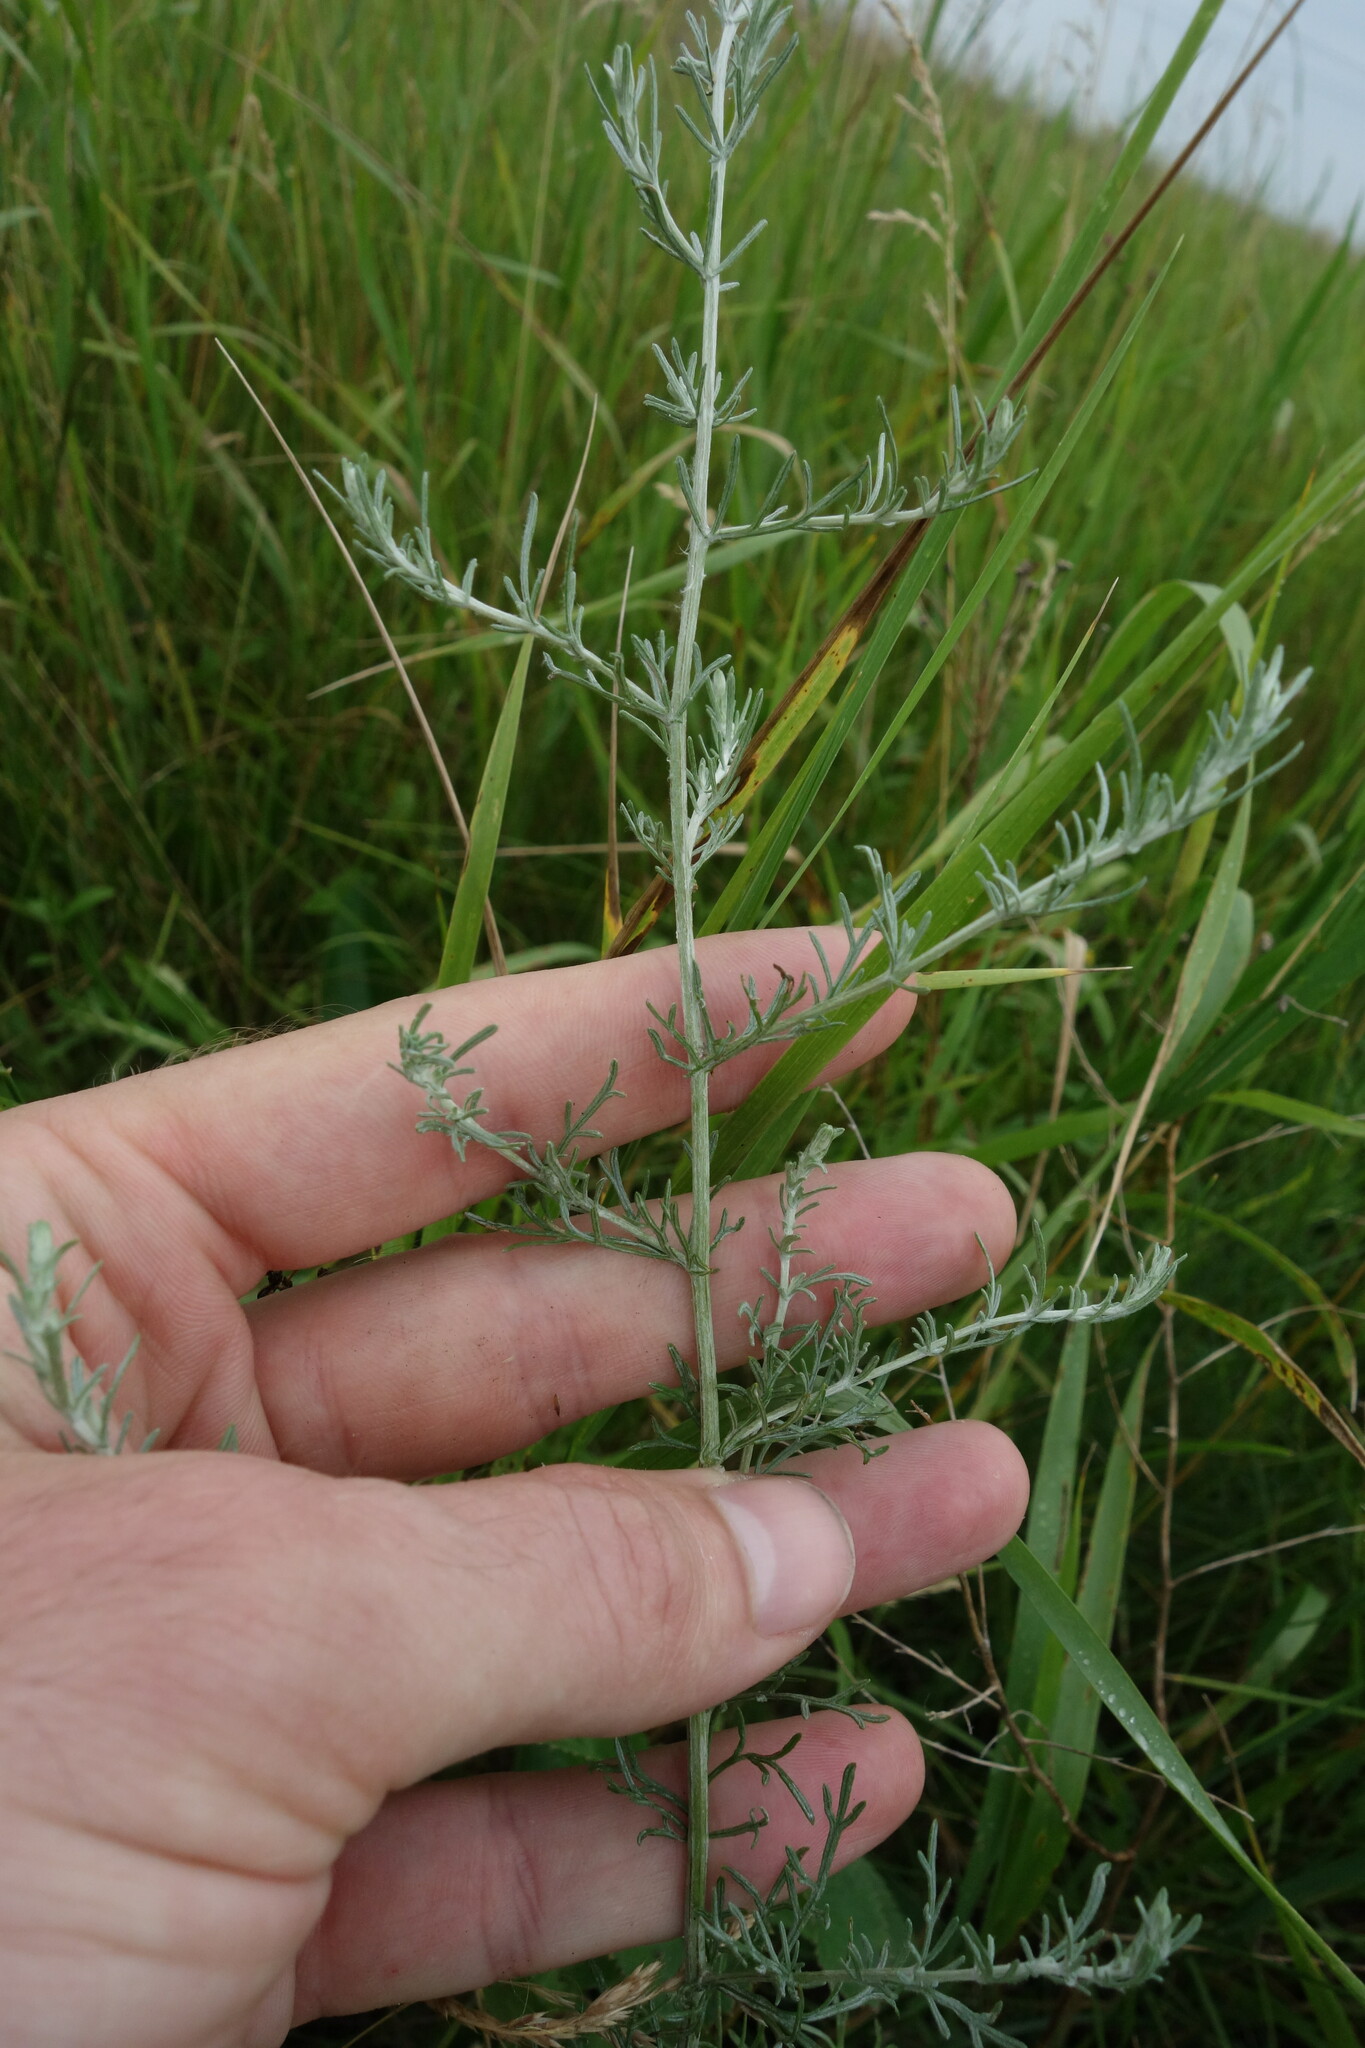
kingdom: Plantae
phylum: Tracheophyta
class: Magnoliopsida
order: Asterales
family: Asteraceae
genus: Artemisia
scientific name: Artemisia santonicum
